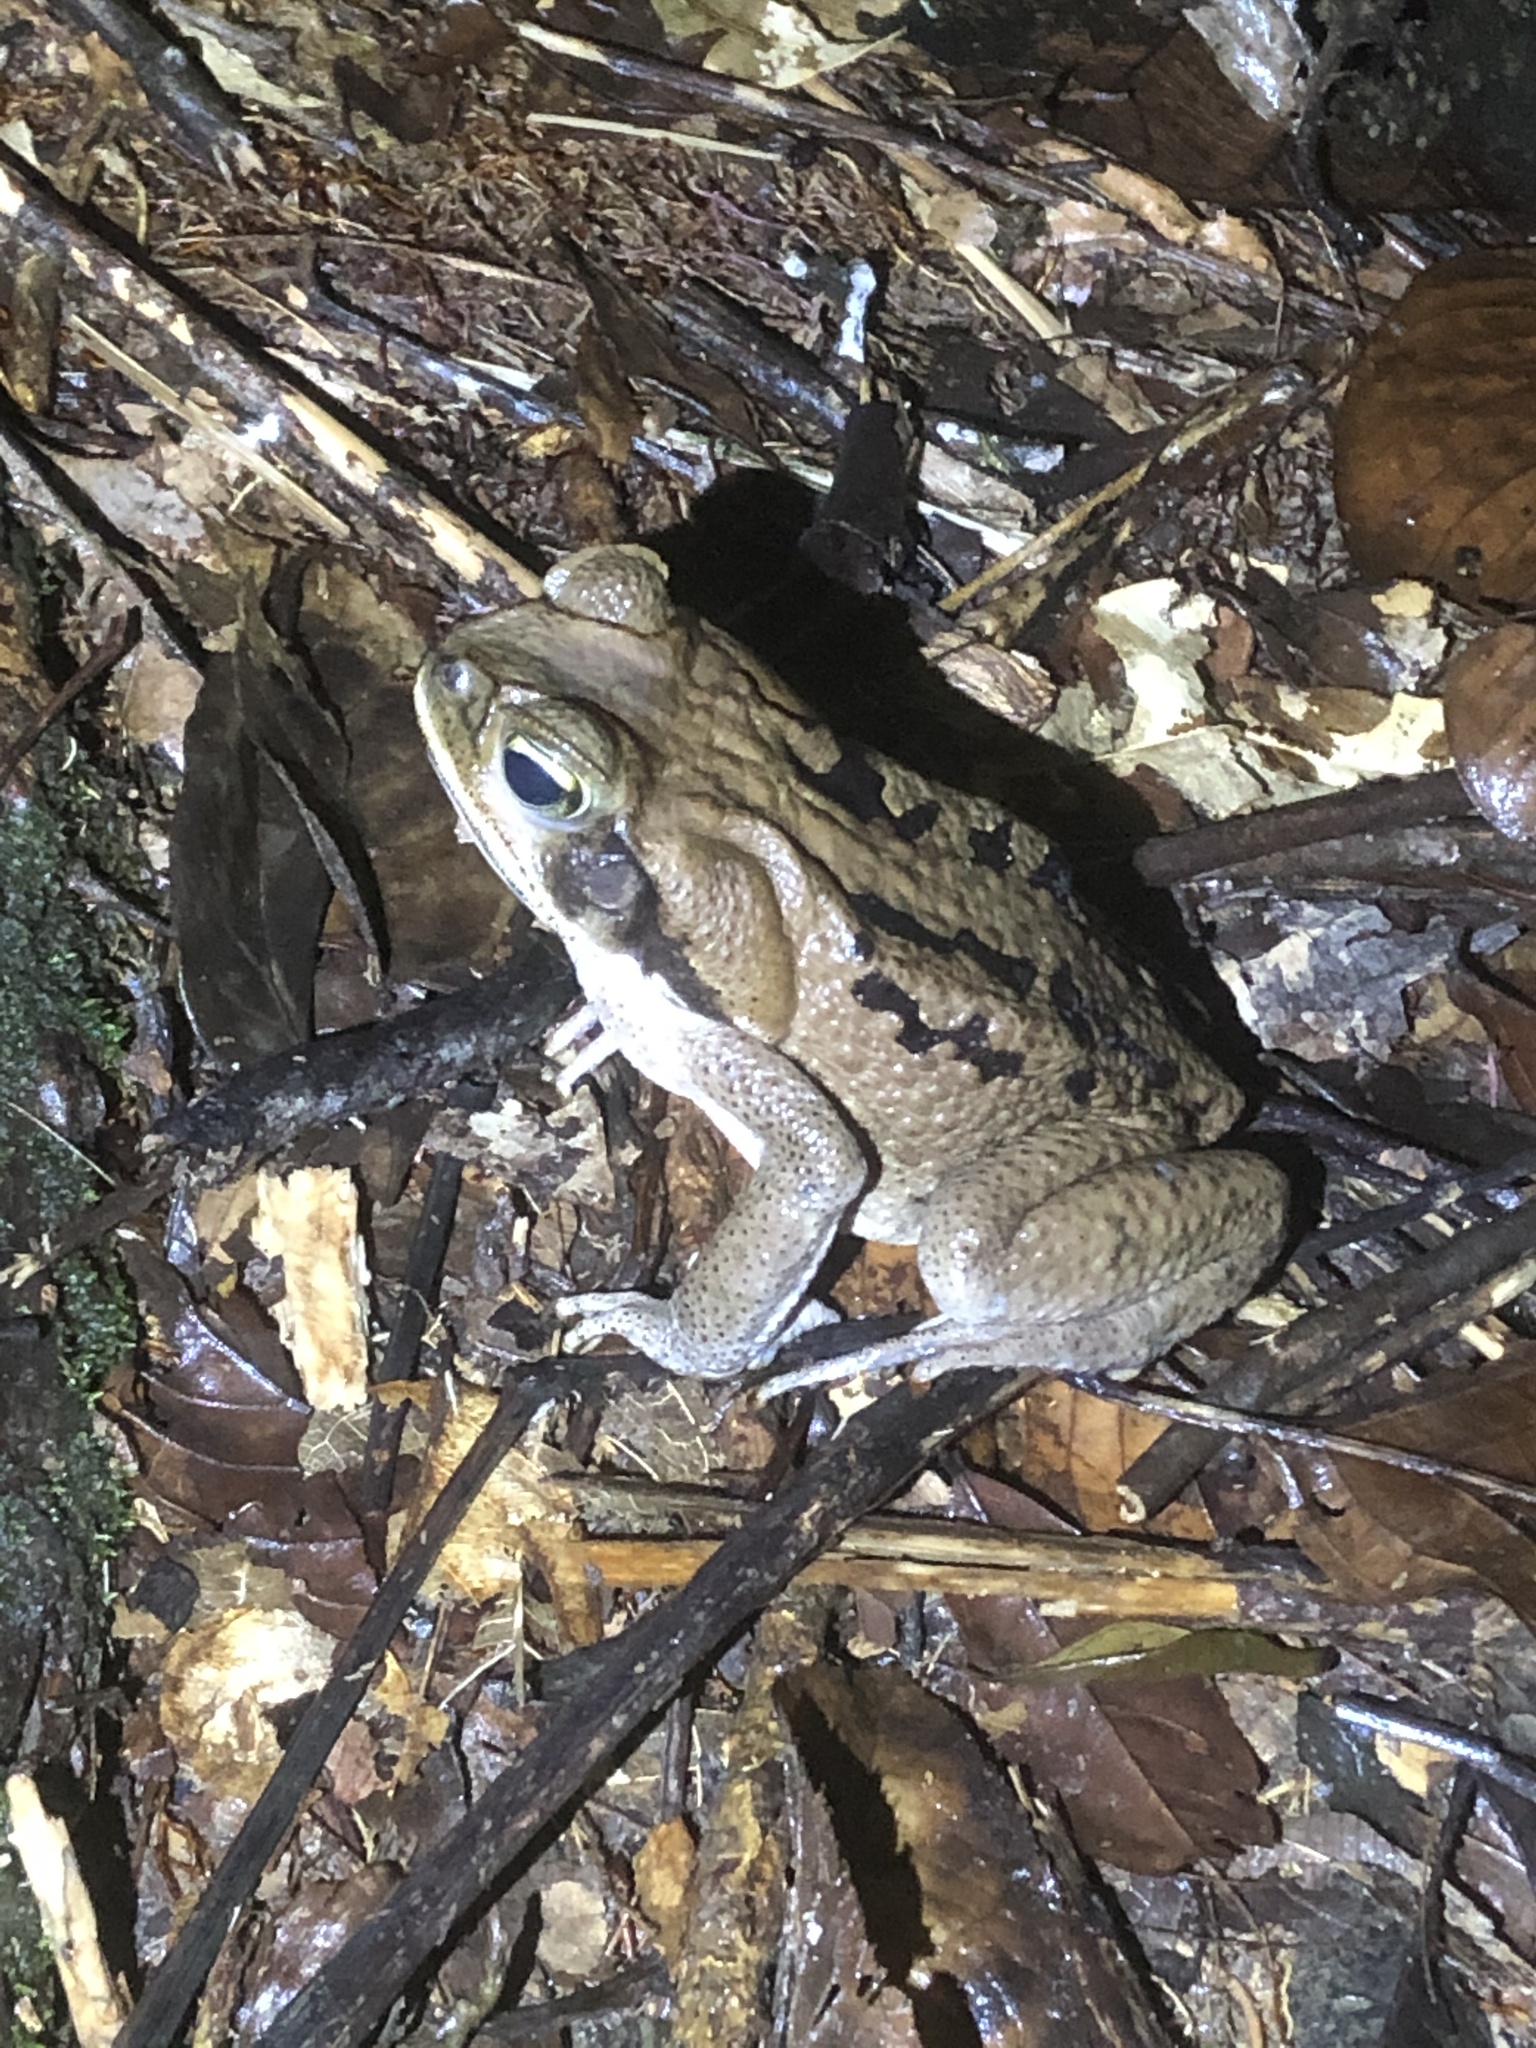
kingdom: Animalia
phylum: Chordata
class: Amphibia
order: Anura
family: Bufonidae
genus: Rhinella
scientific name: Rhinella marina
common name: Cane toad
